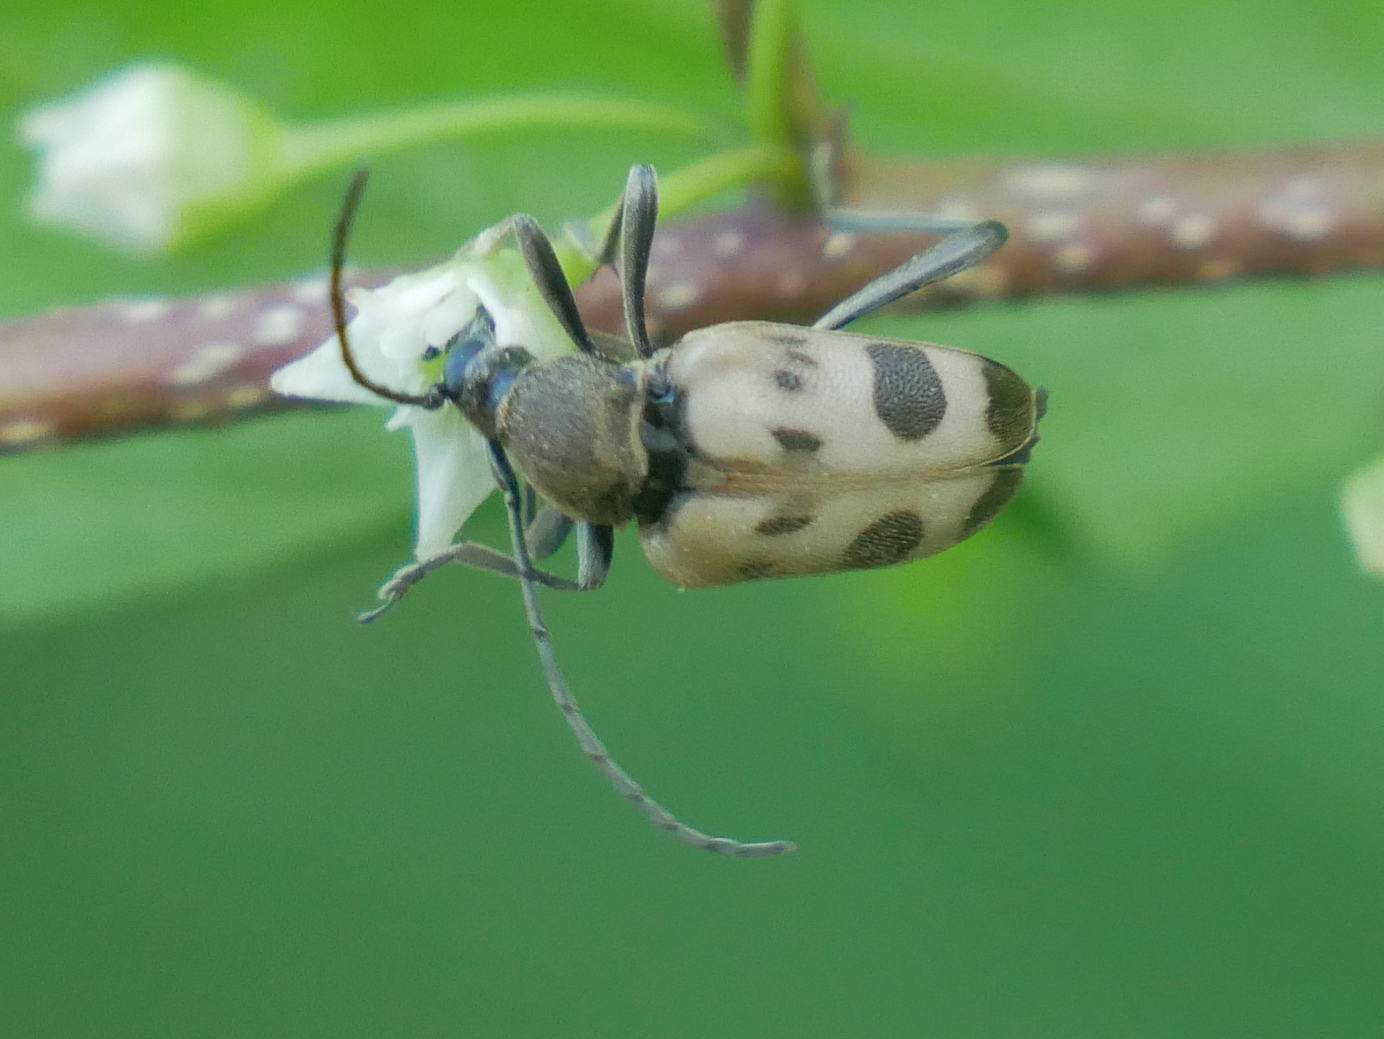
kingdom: Animalia
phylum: Arthropoda
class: Insecta
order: Coleoptera
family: Cerambycidae
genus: Pachytodes
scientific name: Pachytodes cerambyciformis
